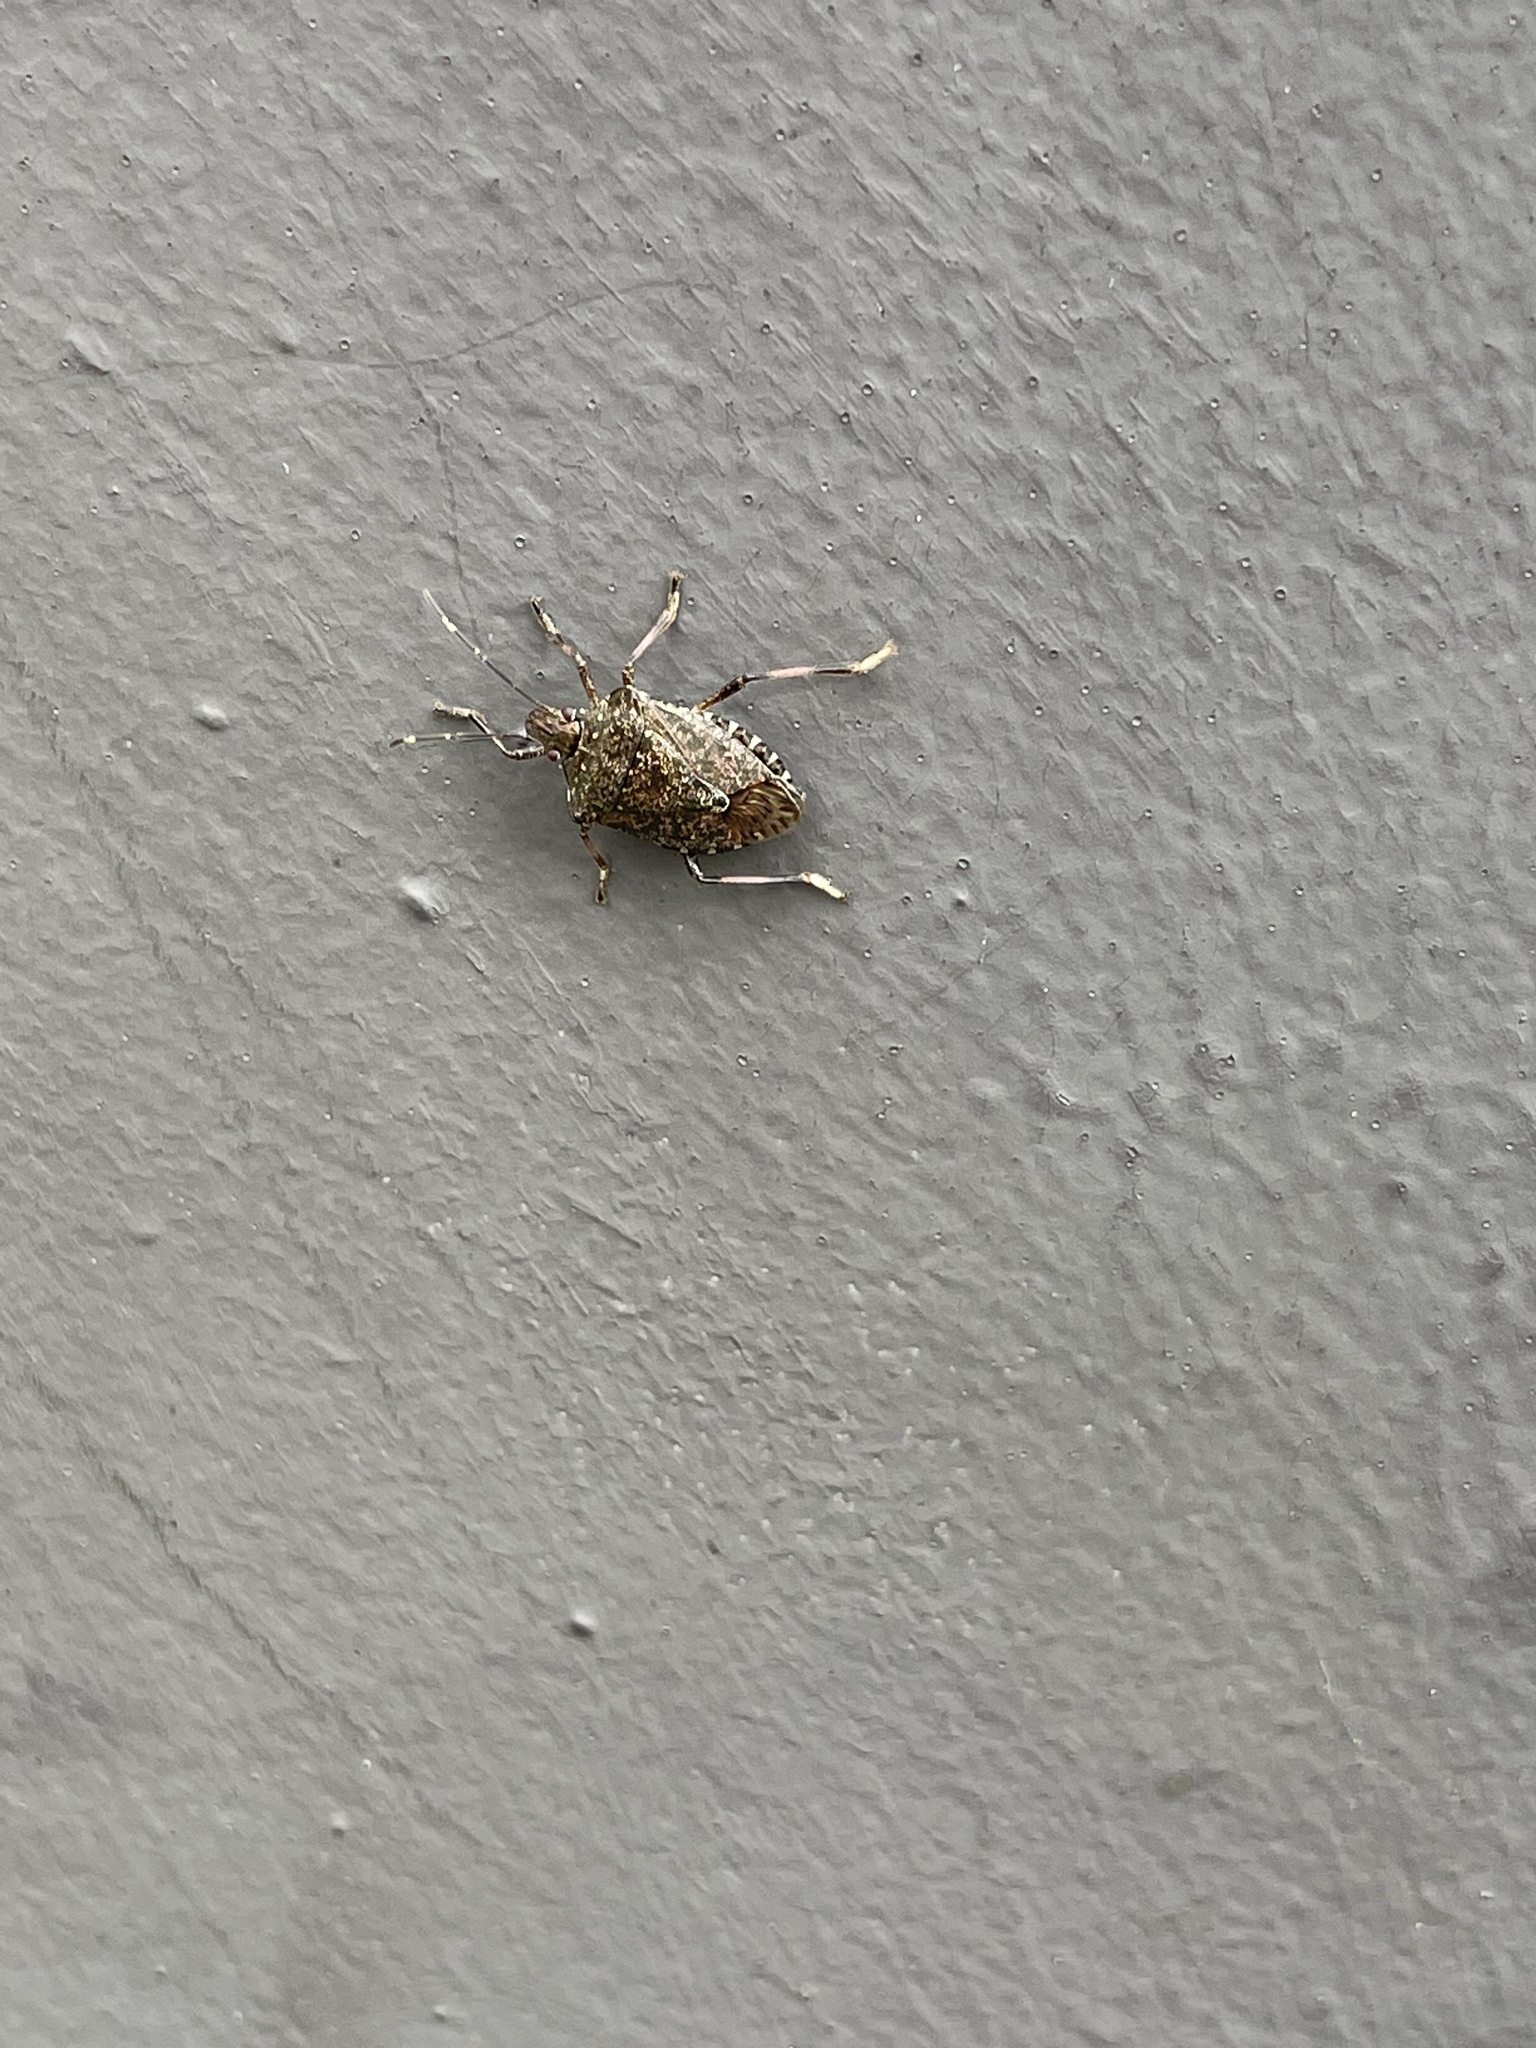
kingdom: Animalia
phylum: Arthropoda
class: Insecta
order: Hemiptera
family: Pentatomidae
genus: Halyomorpha
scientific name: Halyomorpha halys
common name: Brown marmorated stink bug
